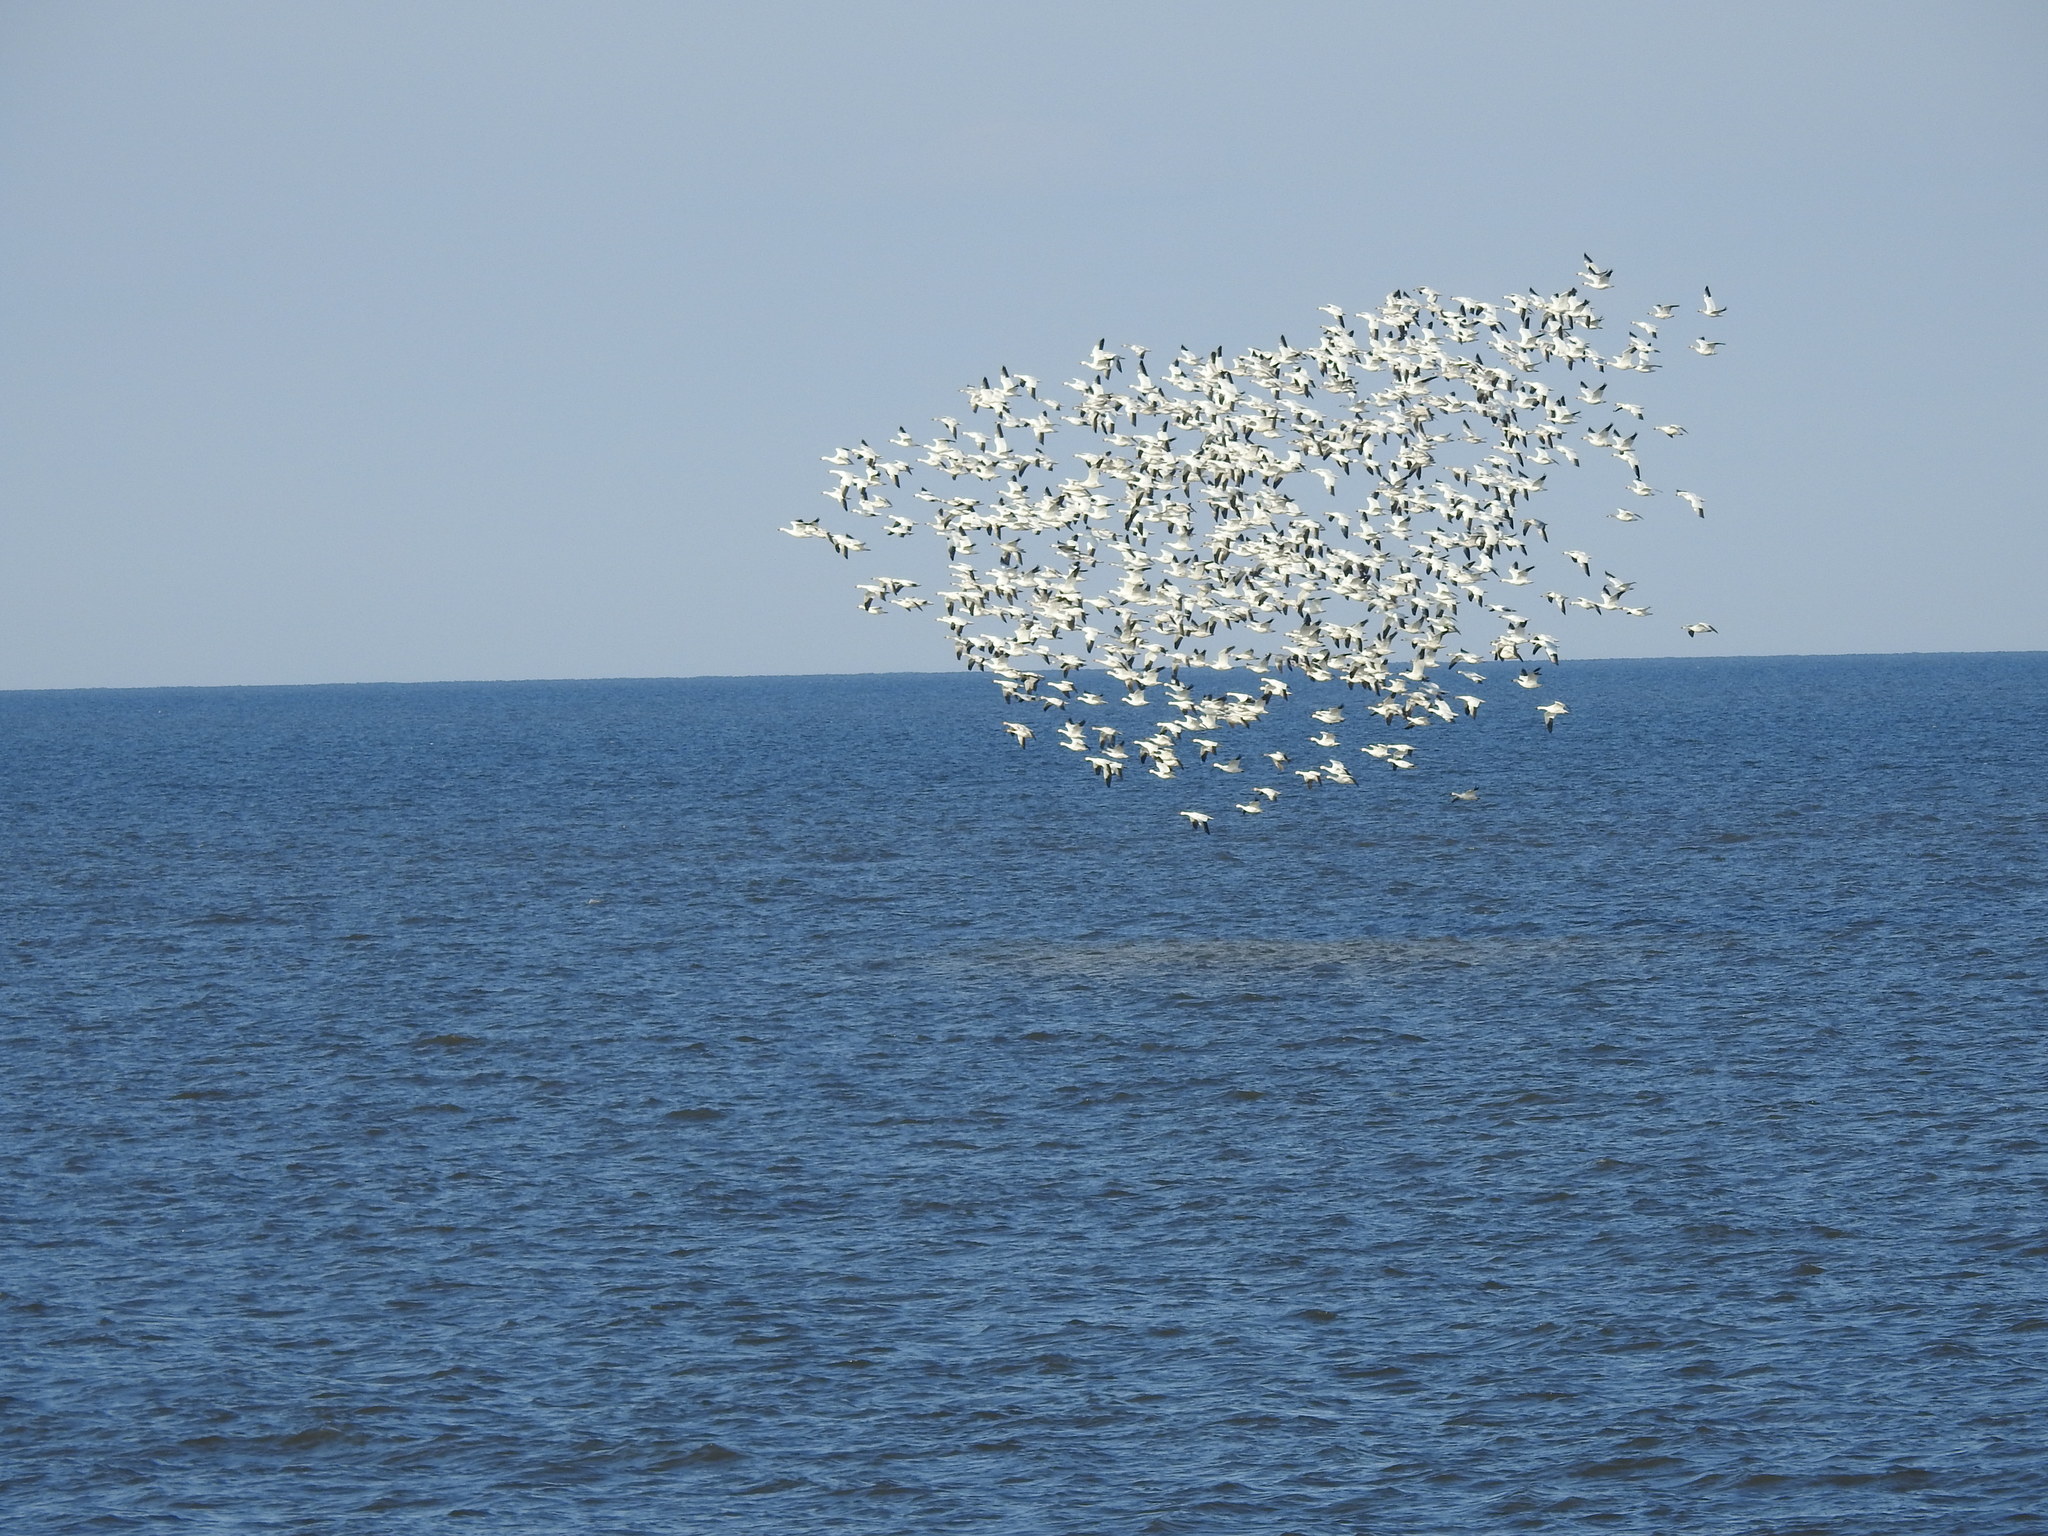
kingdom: Animalia
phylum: Chordata
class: Aves
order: Anseriformes
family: Anatidae
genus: Anser
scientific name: Anser caerulescens
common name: Snow goose
